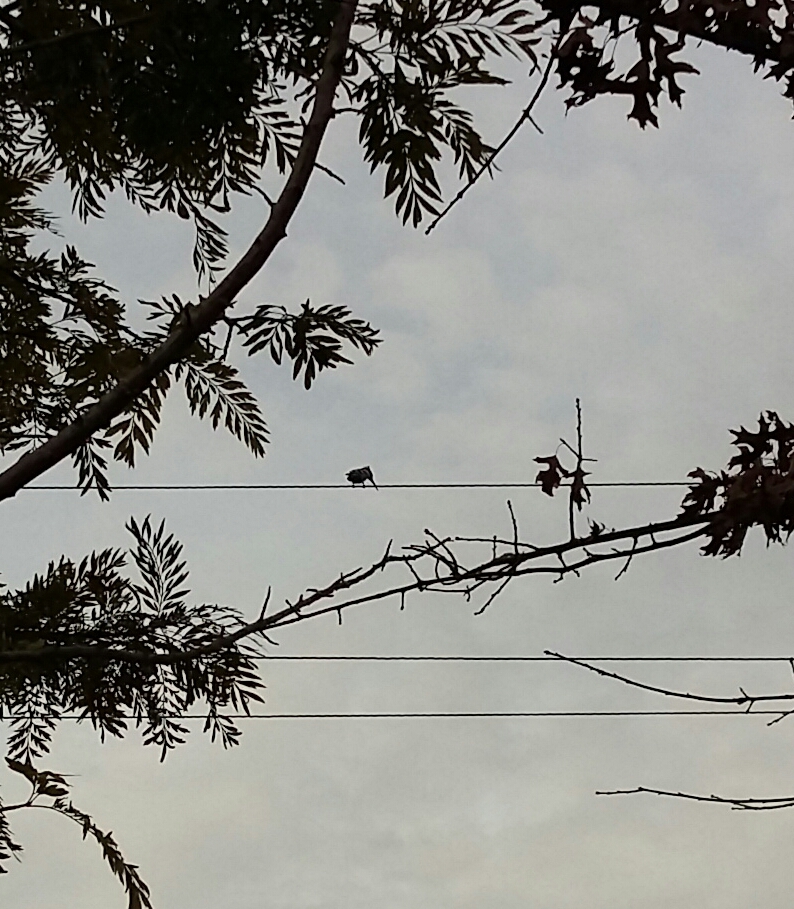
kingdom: Animalia
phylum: Chordata
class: Aves
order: Coraciiformes
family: Alcedinidae
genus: Ceryle
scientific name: Ceryle rudis
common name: Pied kingfisher
